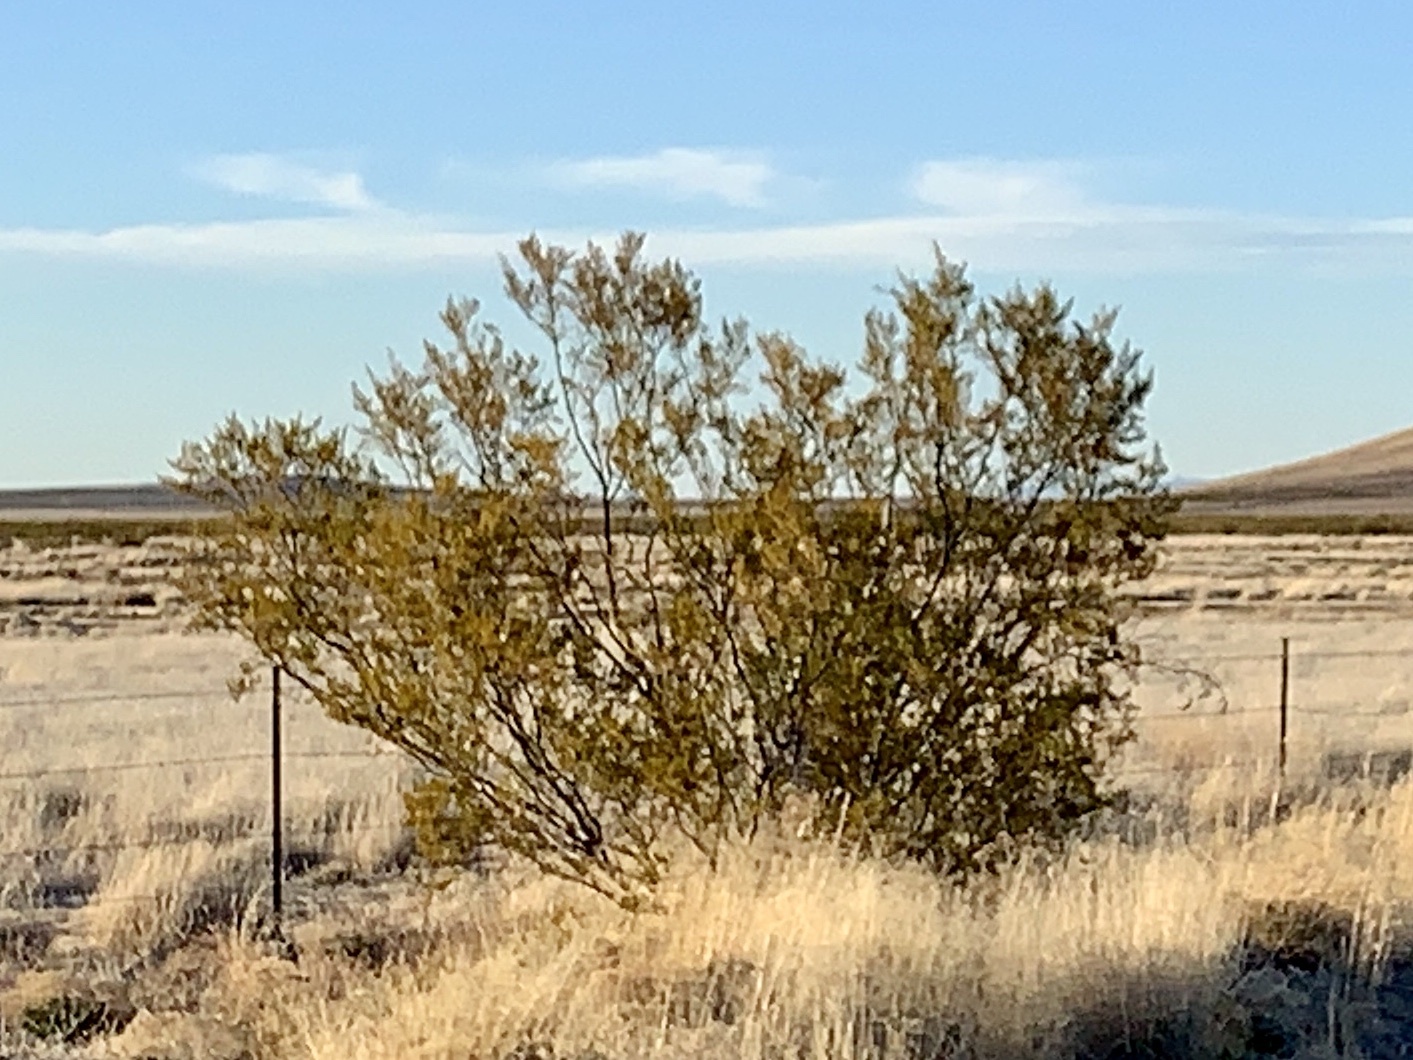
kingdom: Plantae
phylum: Tracheophyta
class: Magnoliopsida
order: Zygophyllales
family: Zygophyllaceae
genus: Larrea
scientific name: Larrea tridentata
